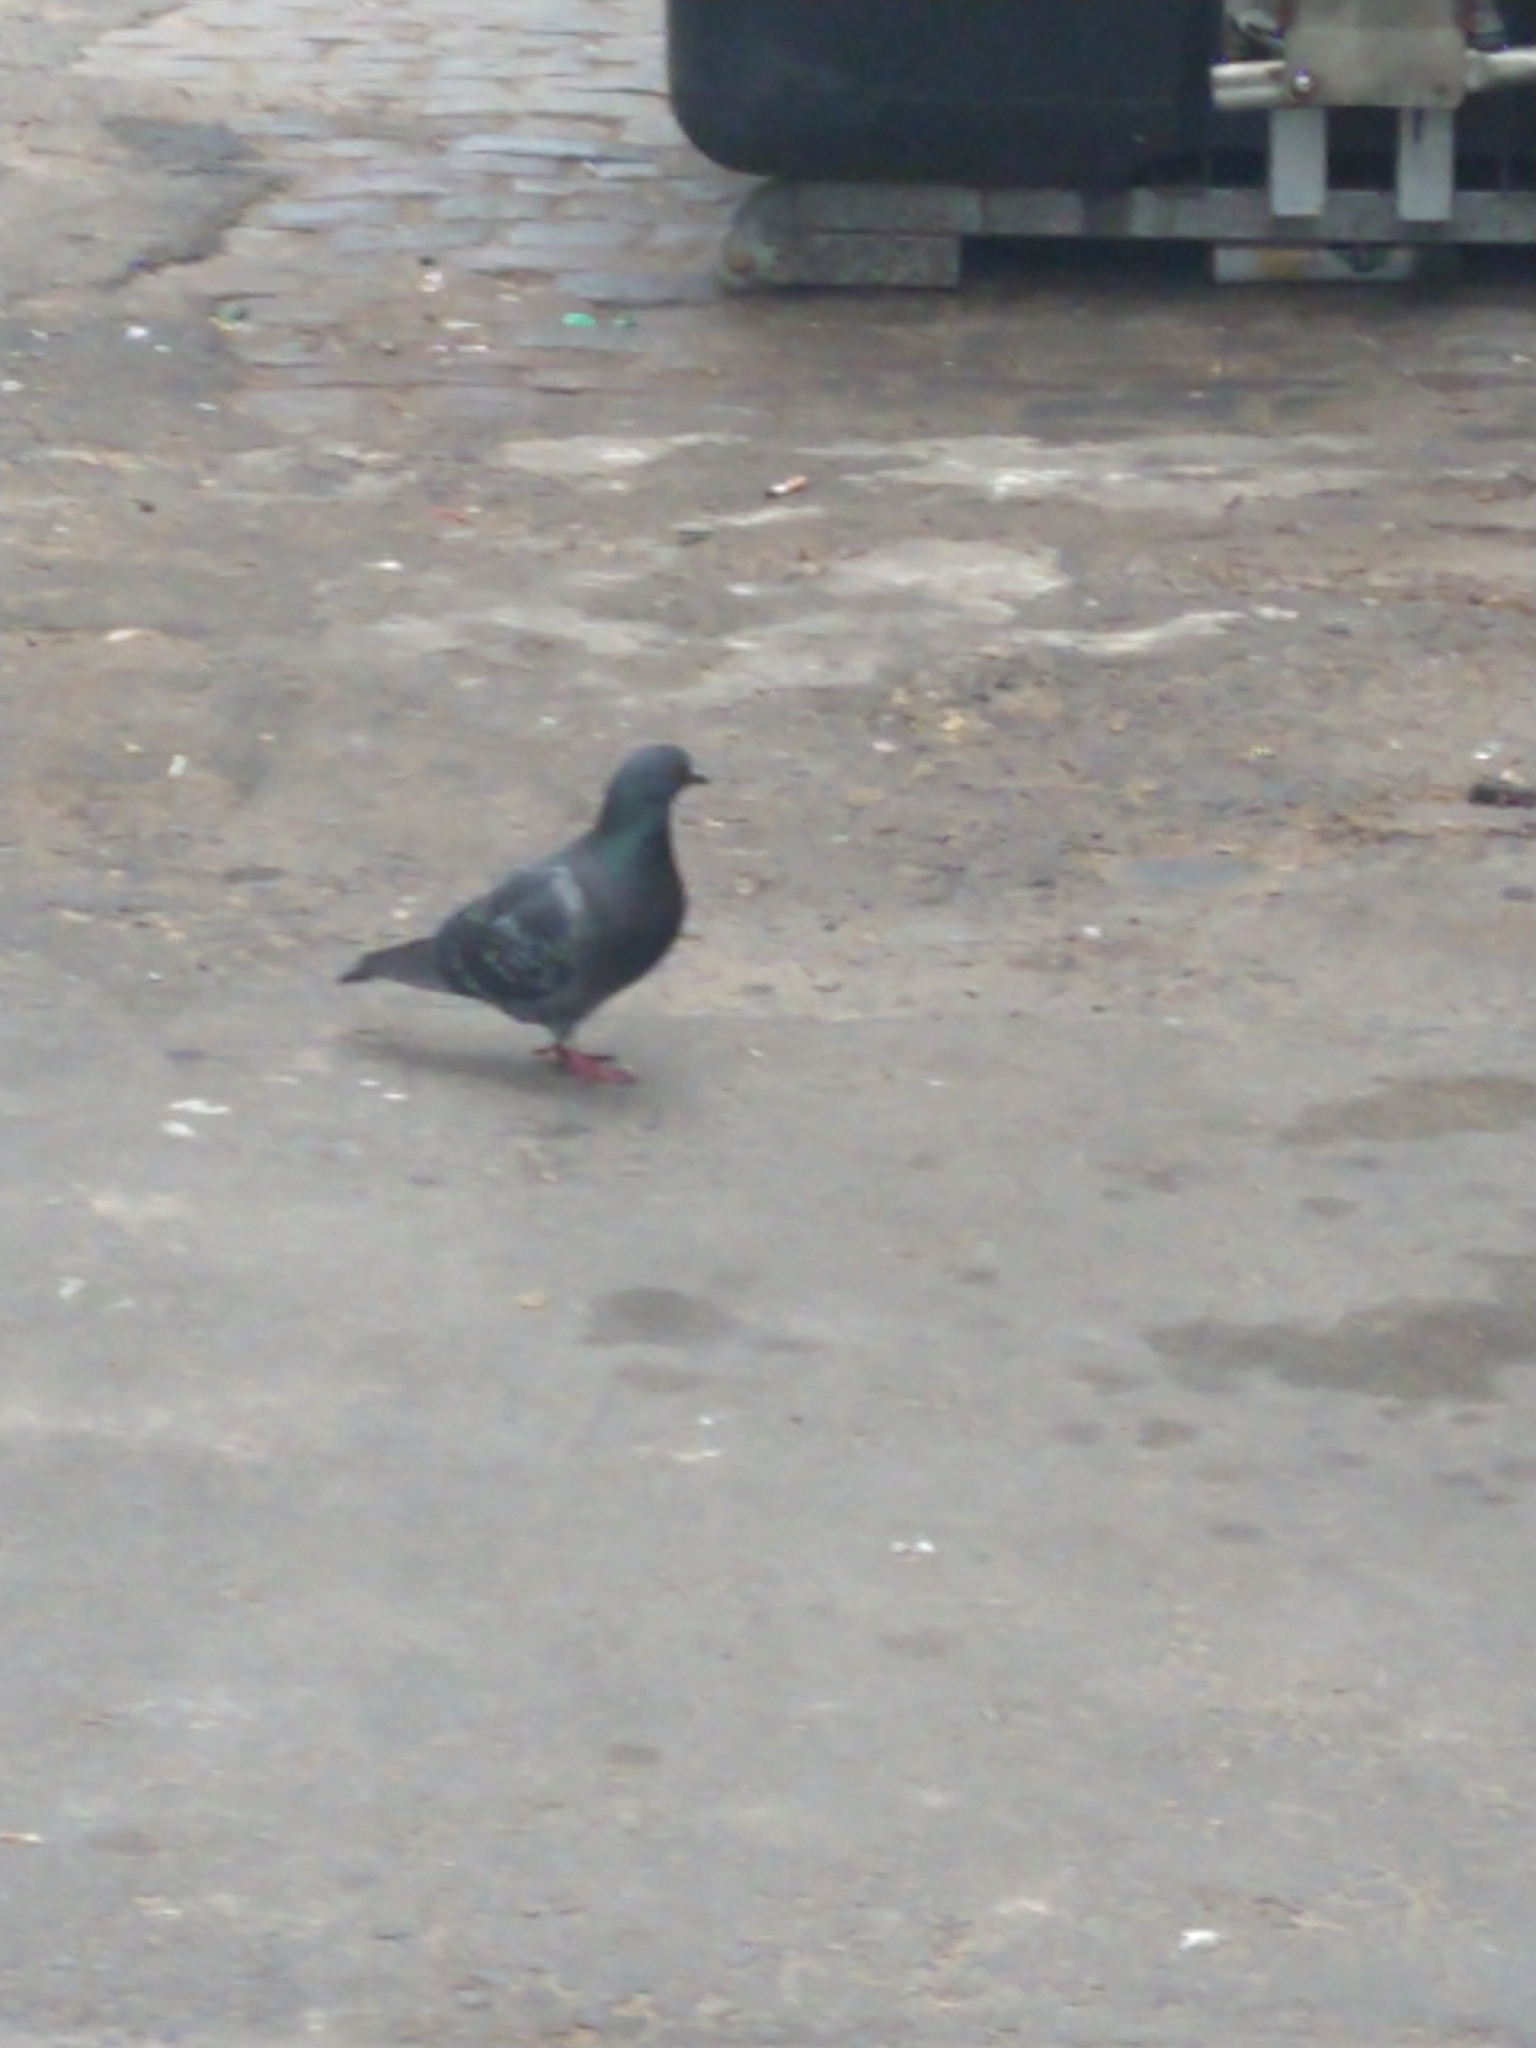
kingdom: Animalia
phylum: Chordata
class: Aves
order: Columbiformes
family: Columbidae
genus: Columba
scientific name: Columba livia
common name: Rock pigeon
